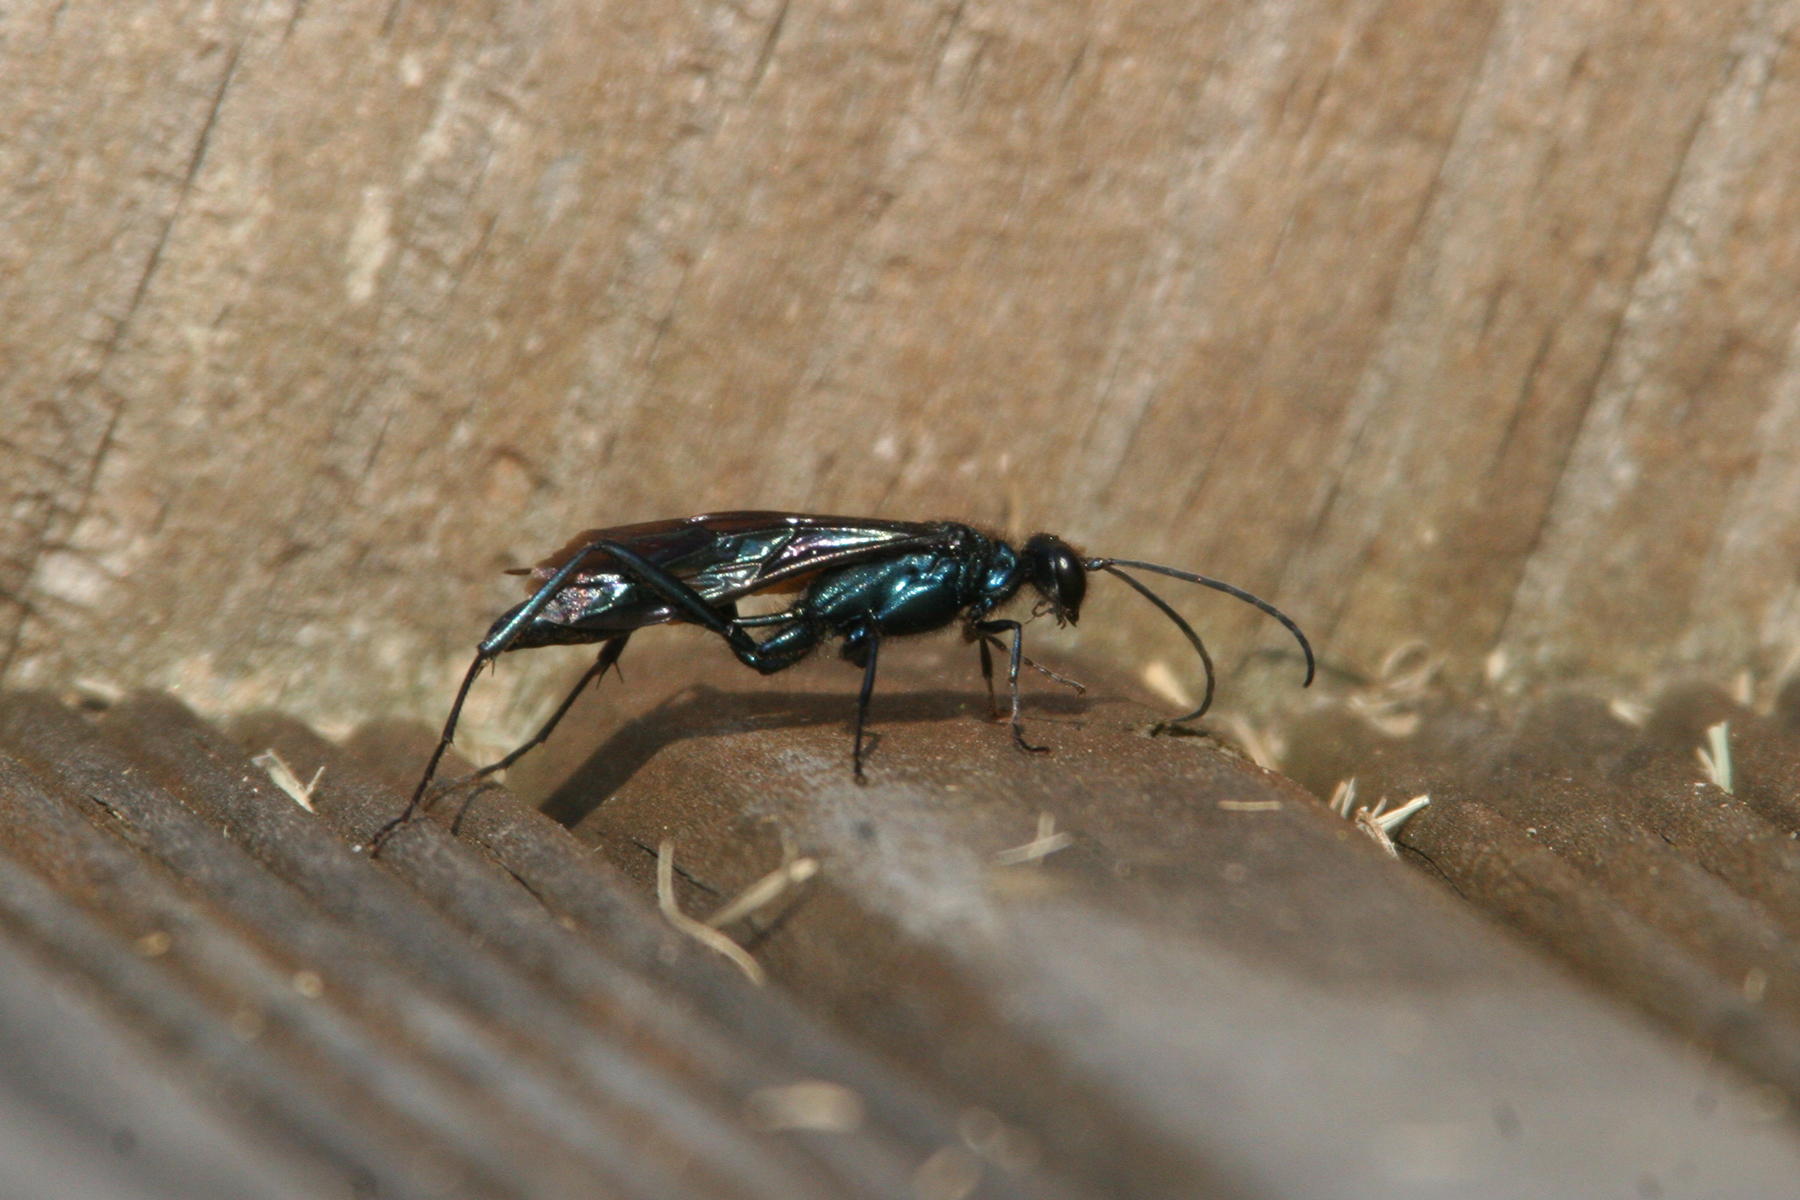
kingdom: Animalia
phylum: Arthropoda
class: Insecta
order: Hymenoptera
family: Sphecidae
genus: Chalybion
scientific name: Chalybion californicum
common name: Mud dauber
